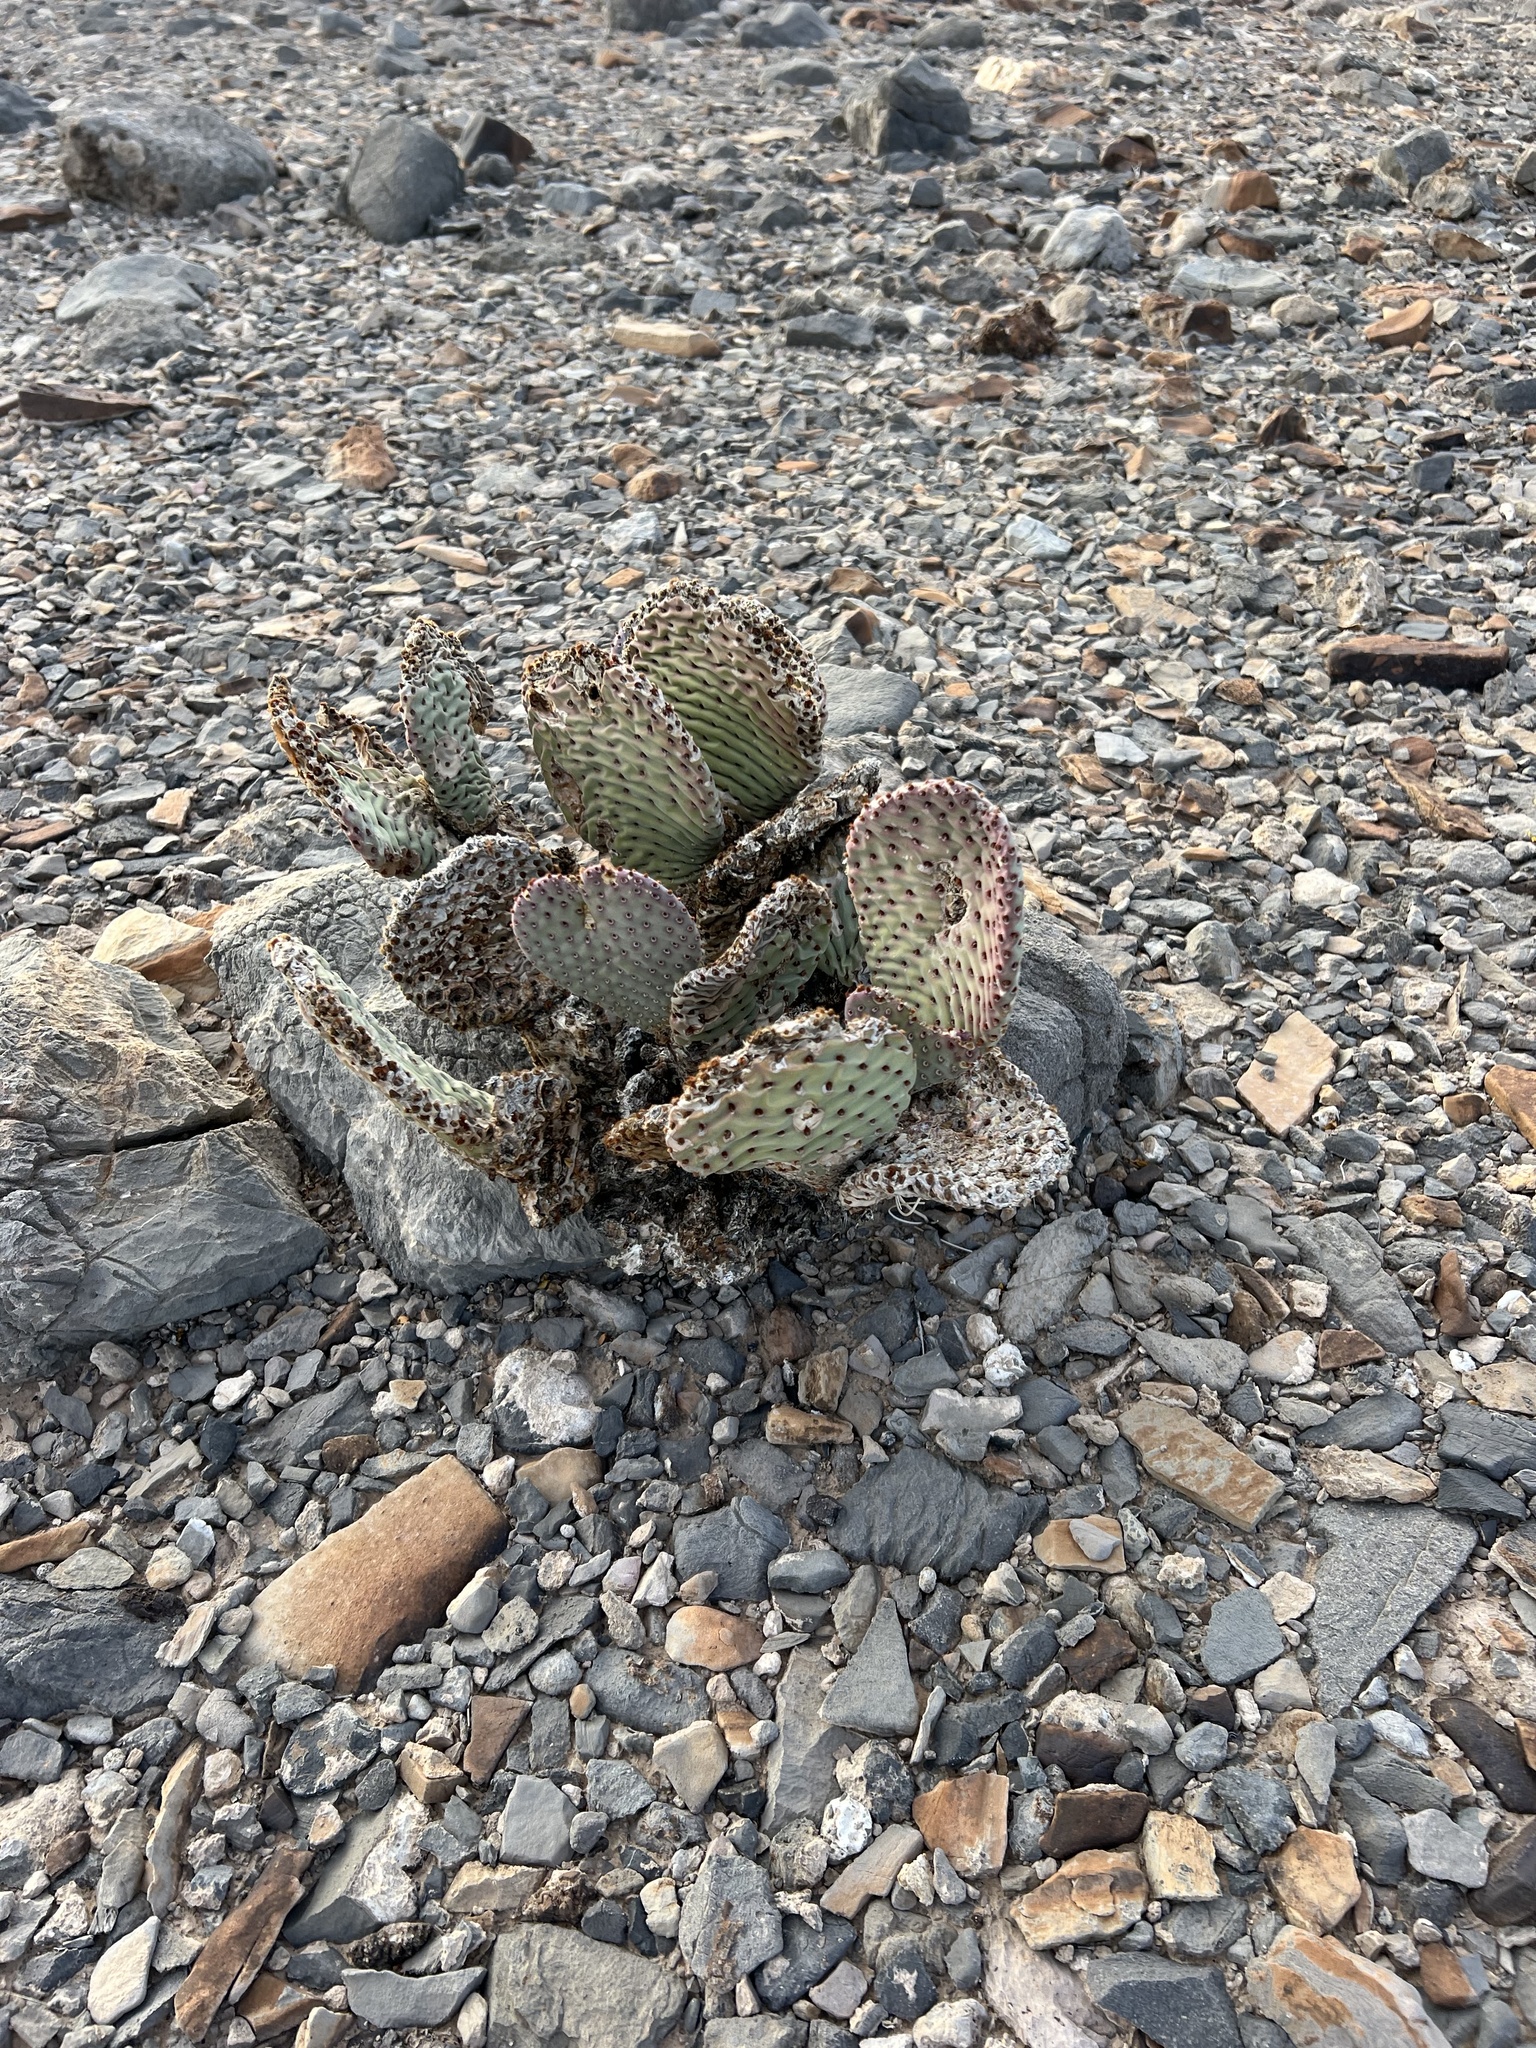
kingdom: Plantae
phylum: Tracheophyta
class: Magnoliopsida
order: Caryophyllales
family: Cactaceae
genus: Opuntia
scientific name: Opuntia basilaris
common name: Beavertail prickly-pear
